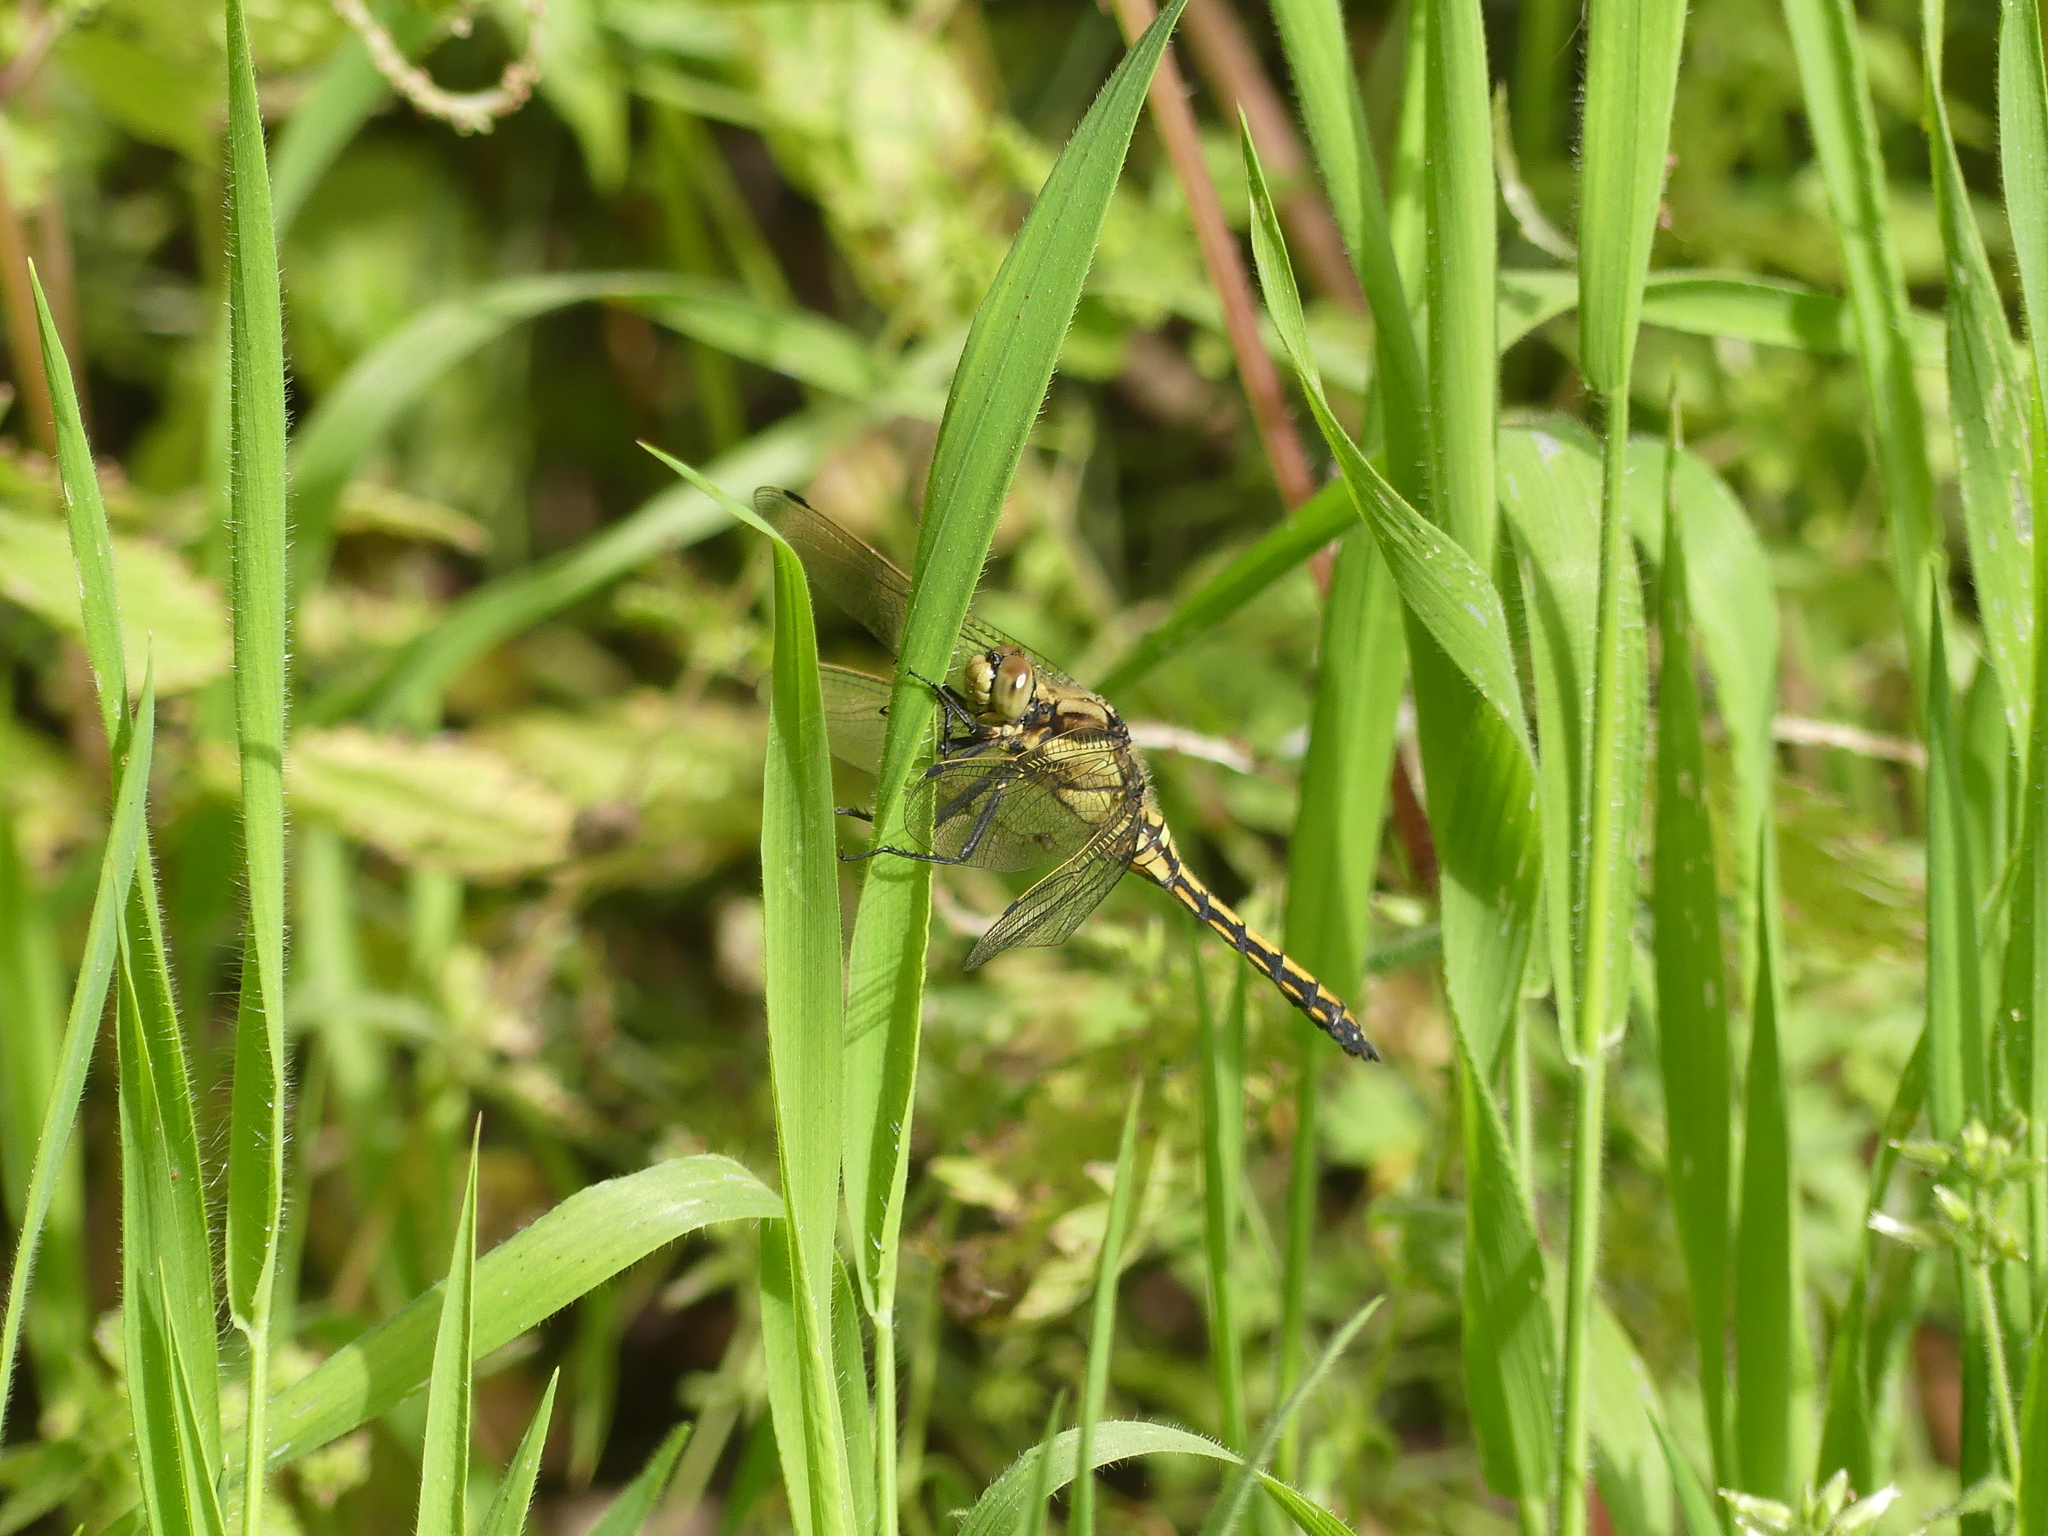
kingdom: Animalia
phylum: Arthropoda
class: Insecta
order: Odonata
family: Libellulidae
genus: Orthetrum
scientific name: Orthetrum cancellatum
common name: Black-tailed skimmer
